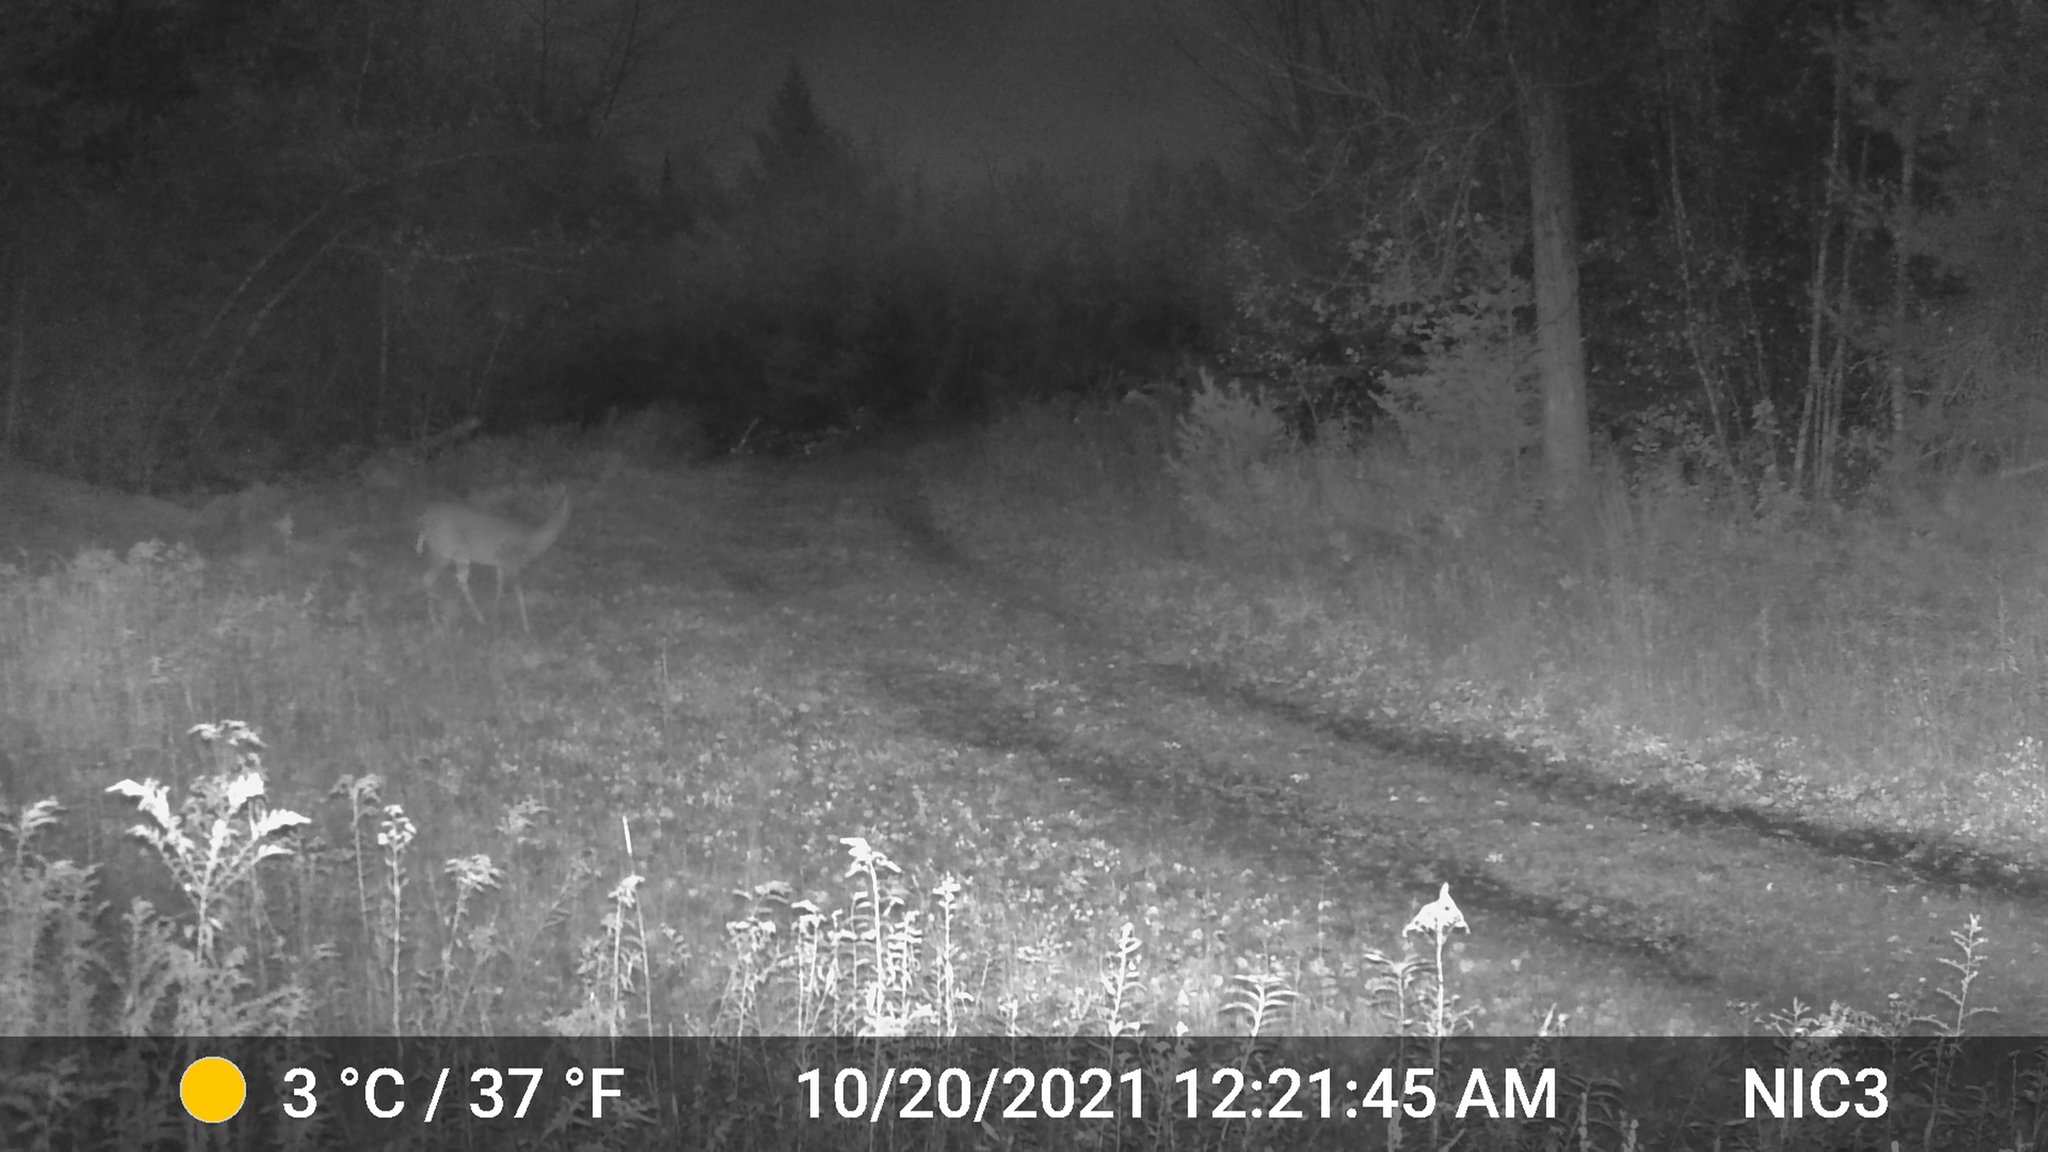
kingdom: Animalia
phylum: Chordata
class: Mammalia
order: Artiodactyla
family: Cervidae
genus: Odocoileus
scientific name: Odocoileus virginianus
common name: White-tailed deer
